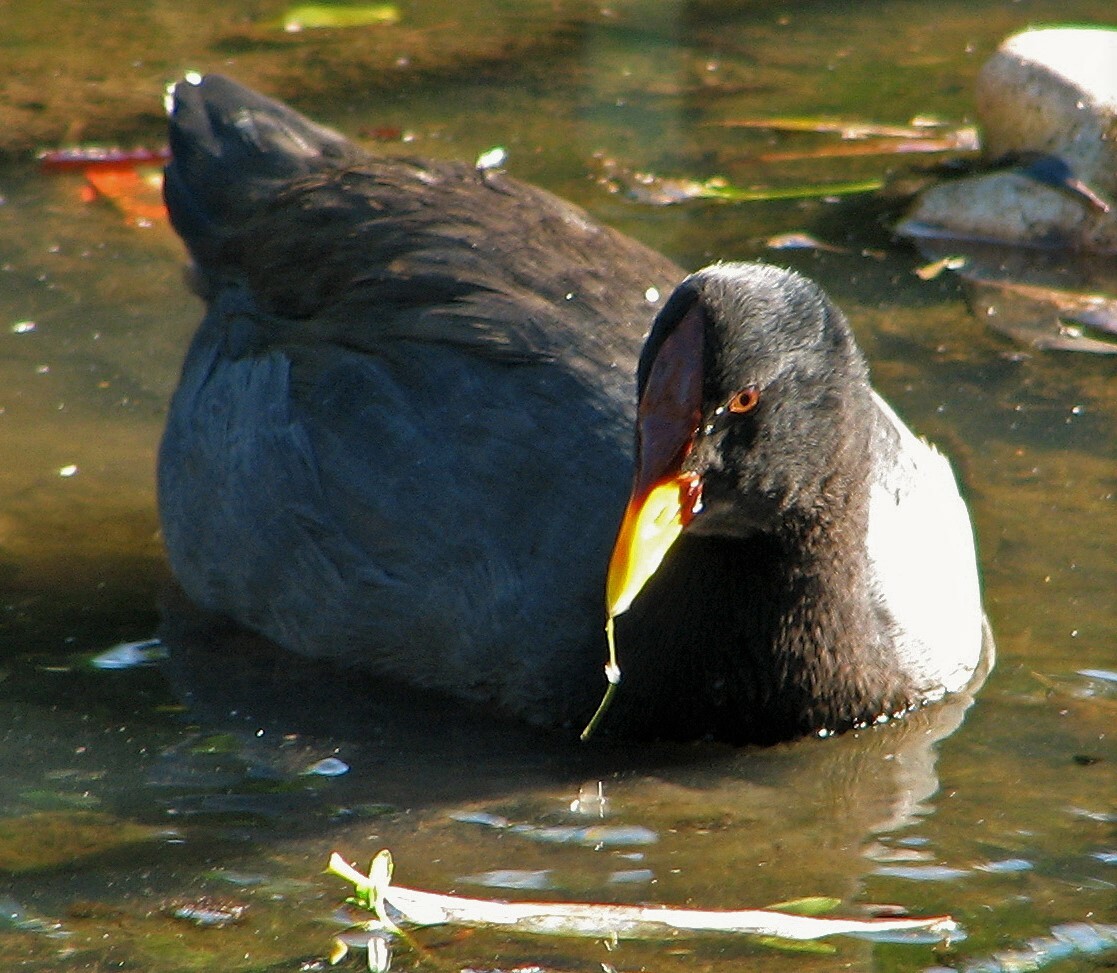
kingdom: Animalia
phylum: Chordata
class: Aves
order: Gruiformes
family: Rallidae
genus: Fulica
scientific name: Fulica rufifrons
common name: Red-fronted coot
